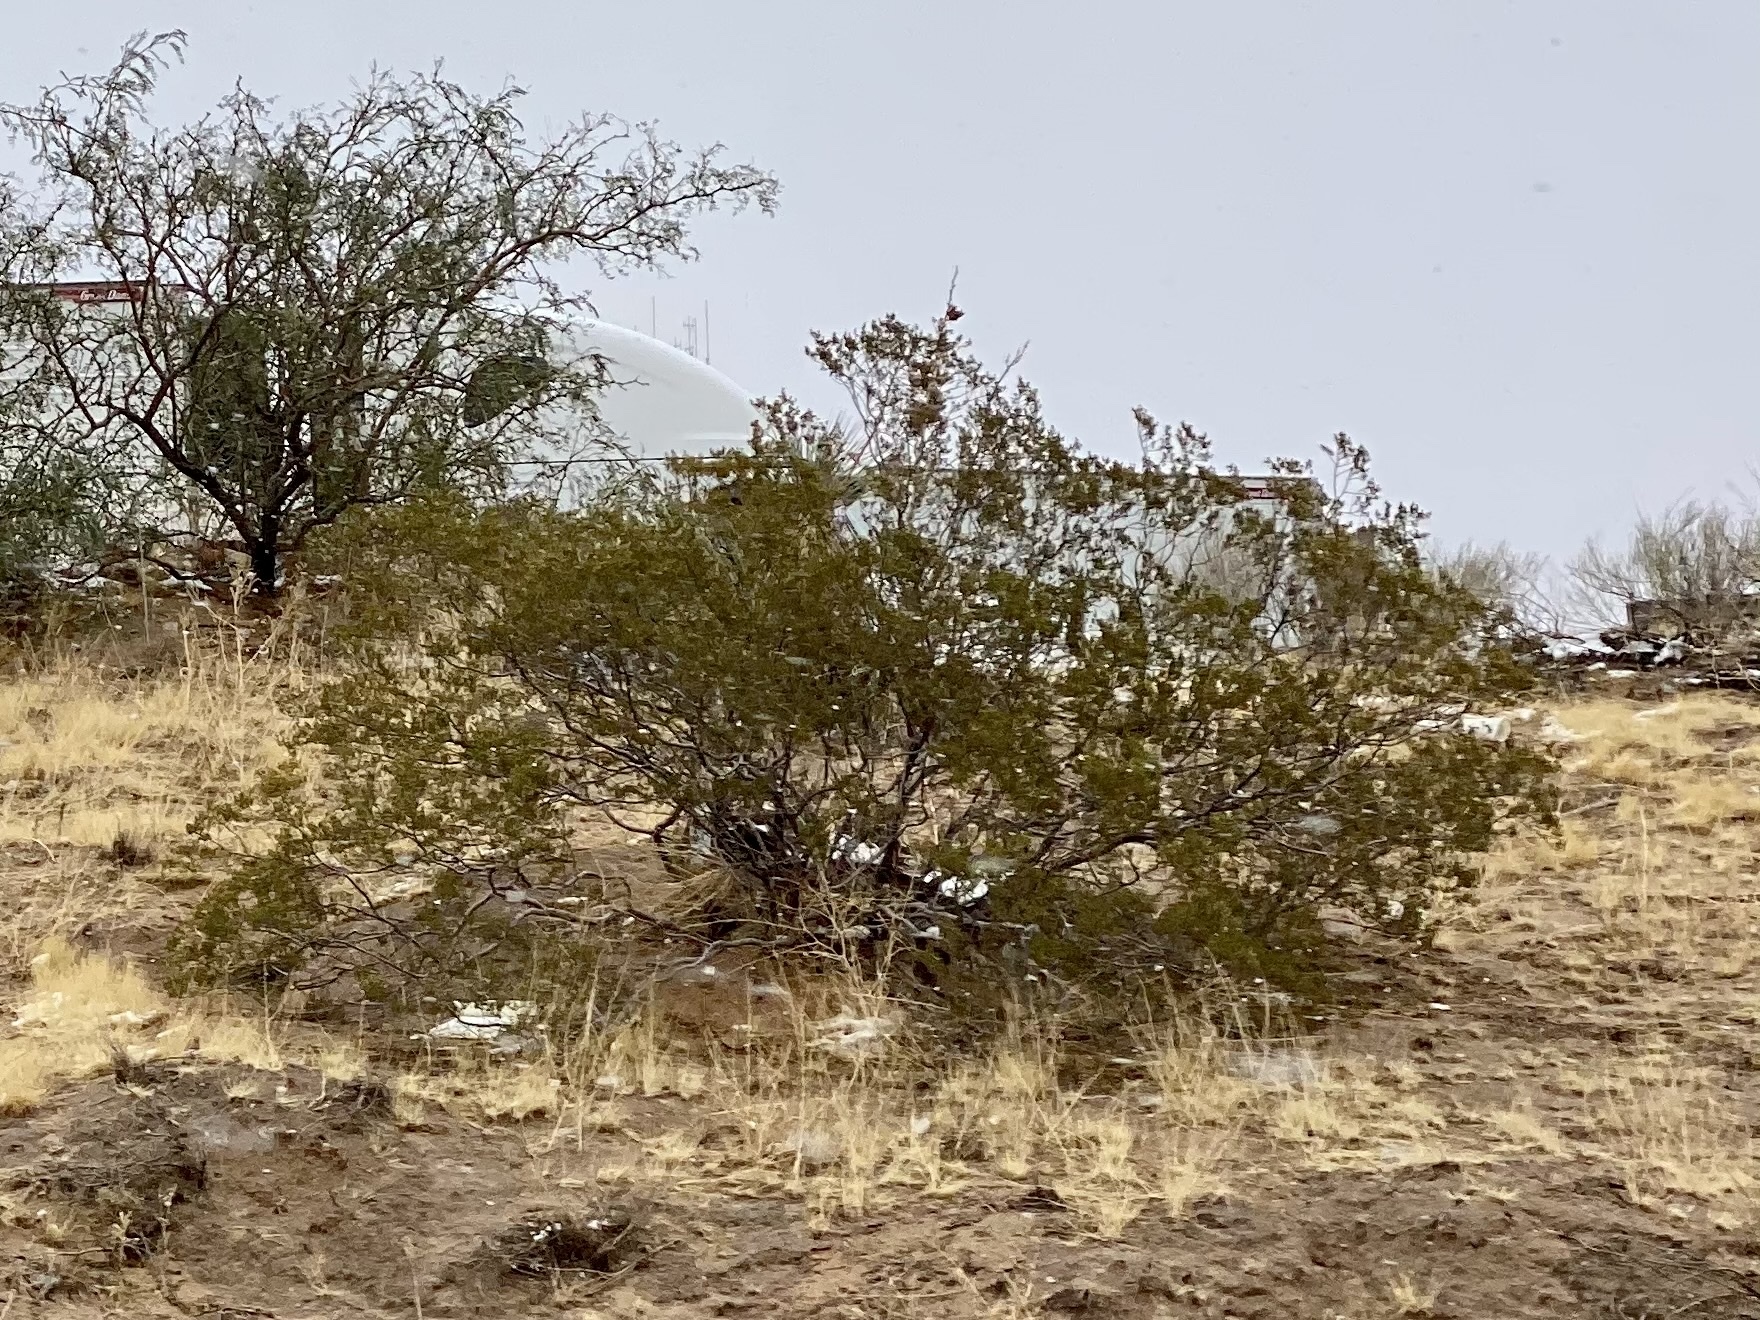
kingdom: Plantae
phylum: Tracheophyta
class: Magnoliopsida
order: Zygophyllales
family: Zygophyllaceae
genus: Larrea
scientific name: Larrea tridentata
